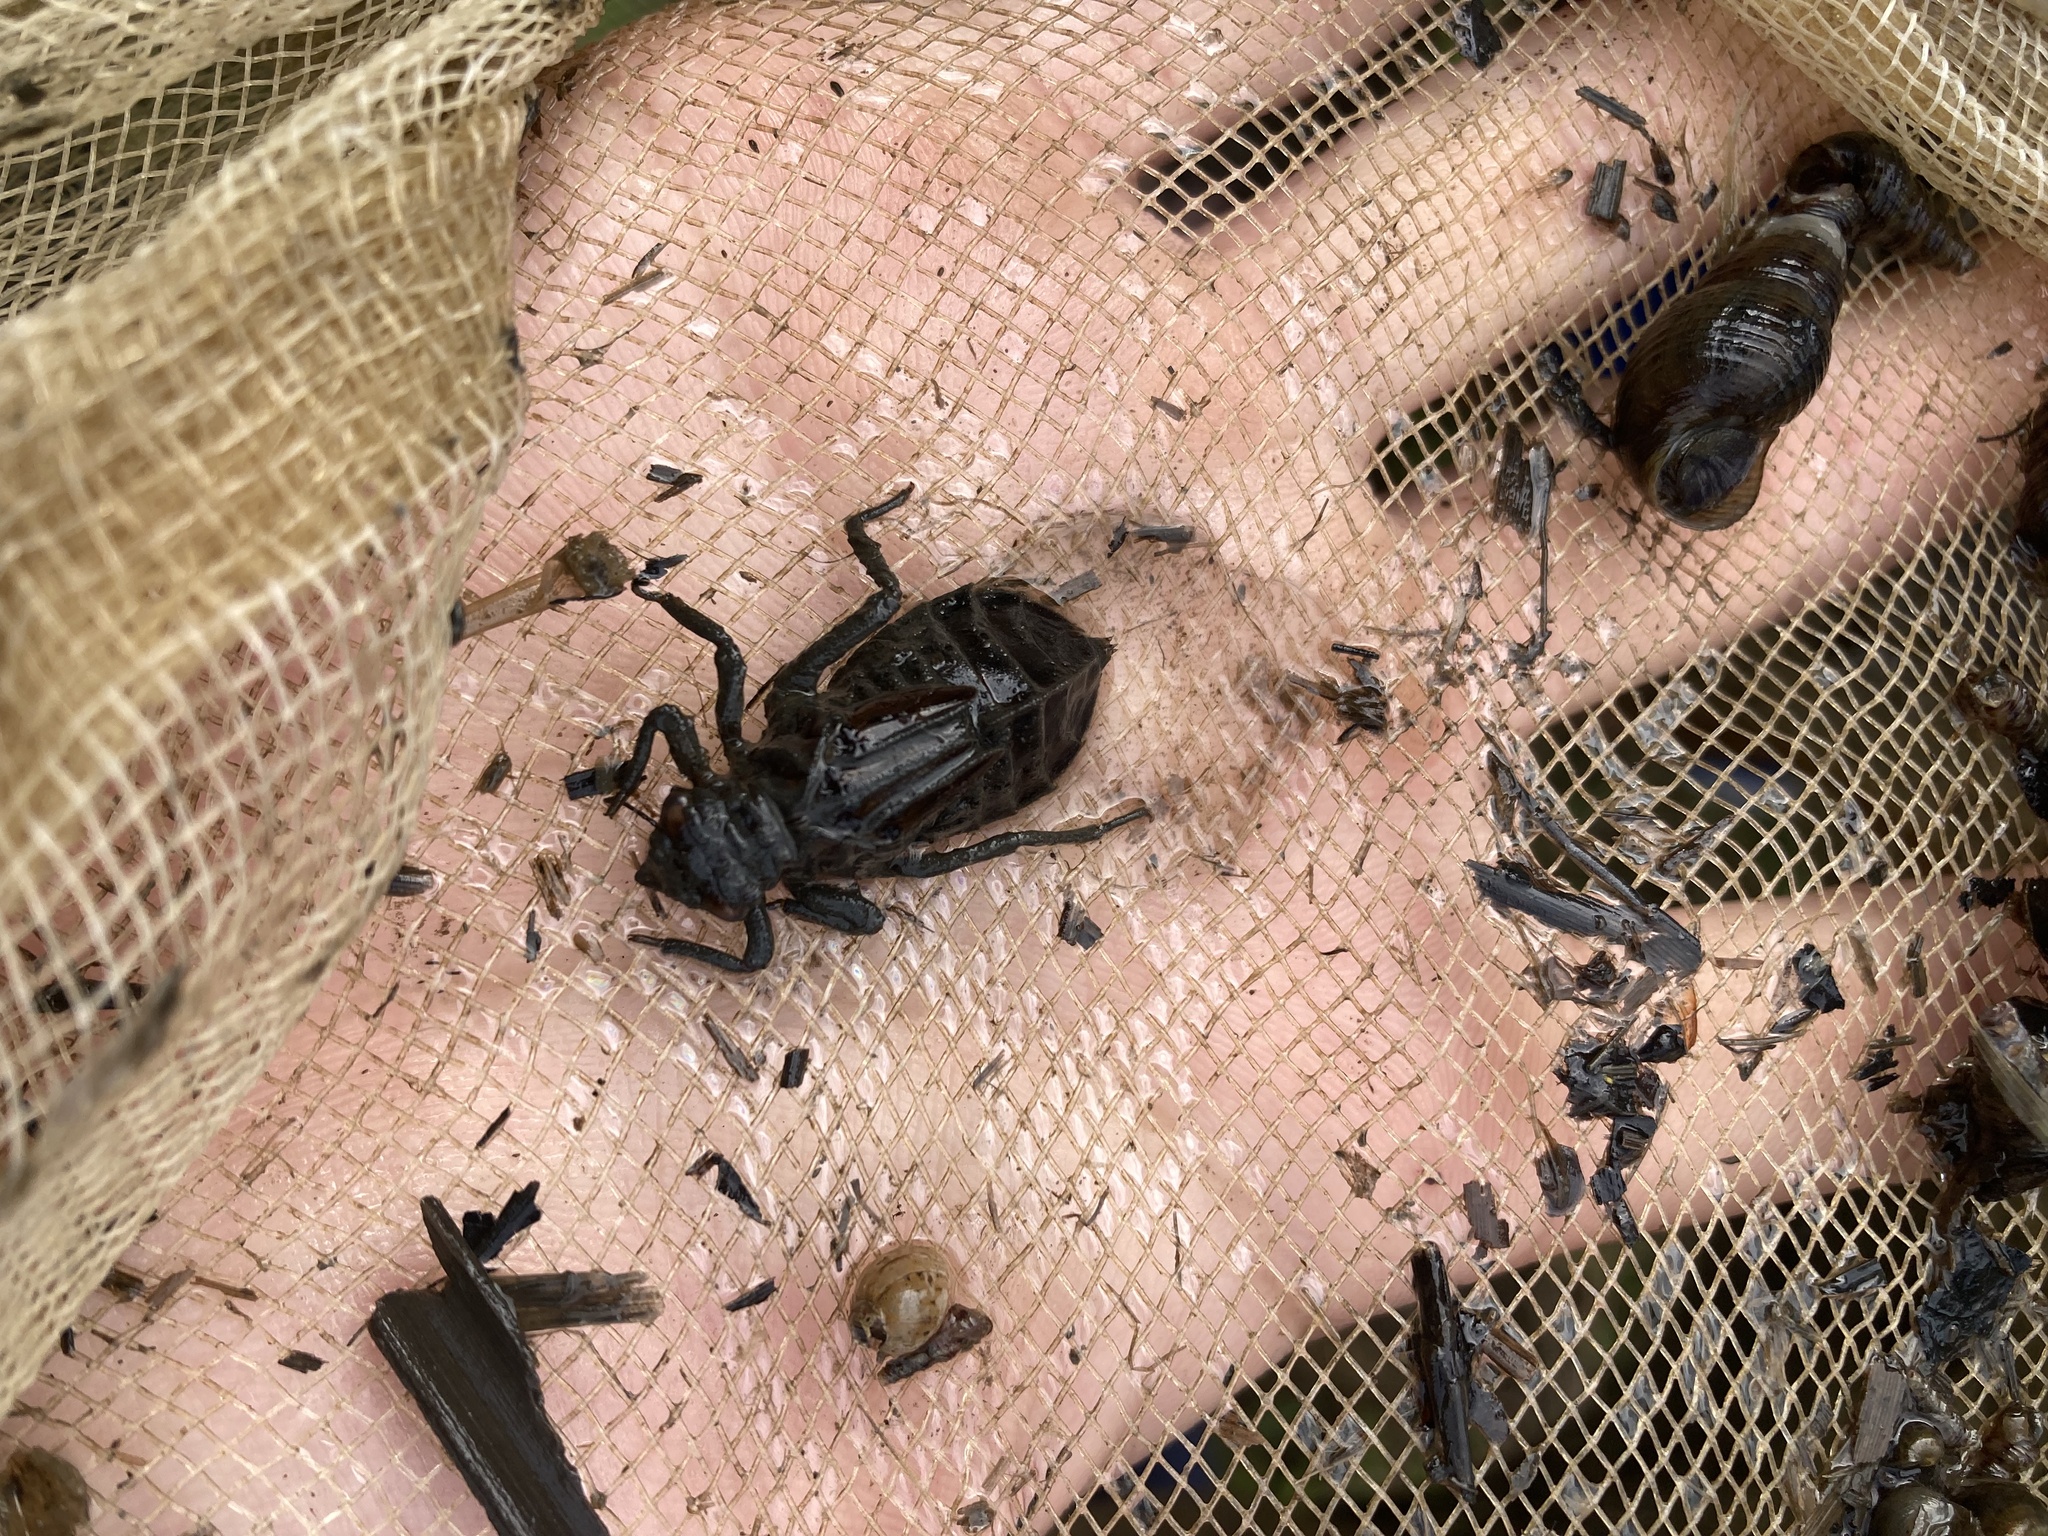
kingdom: Animalia
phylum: Arthropoda
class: Insecta
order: Odonata
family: Gomphidae
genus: Ictinogomphus
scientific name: Ictinogomphus rapax
